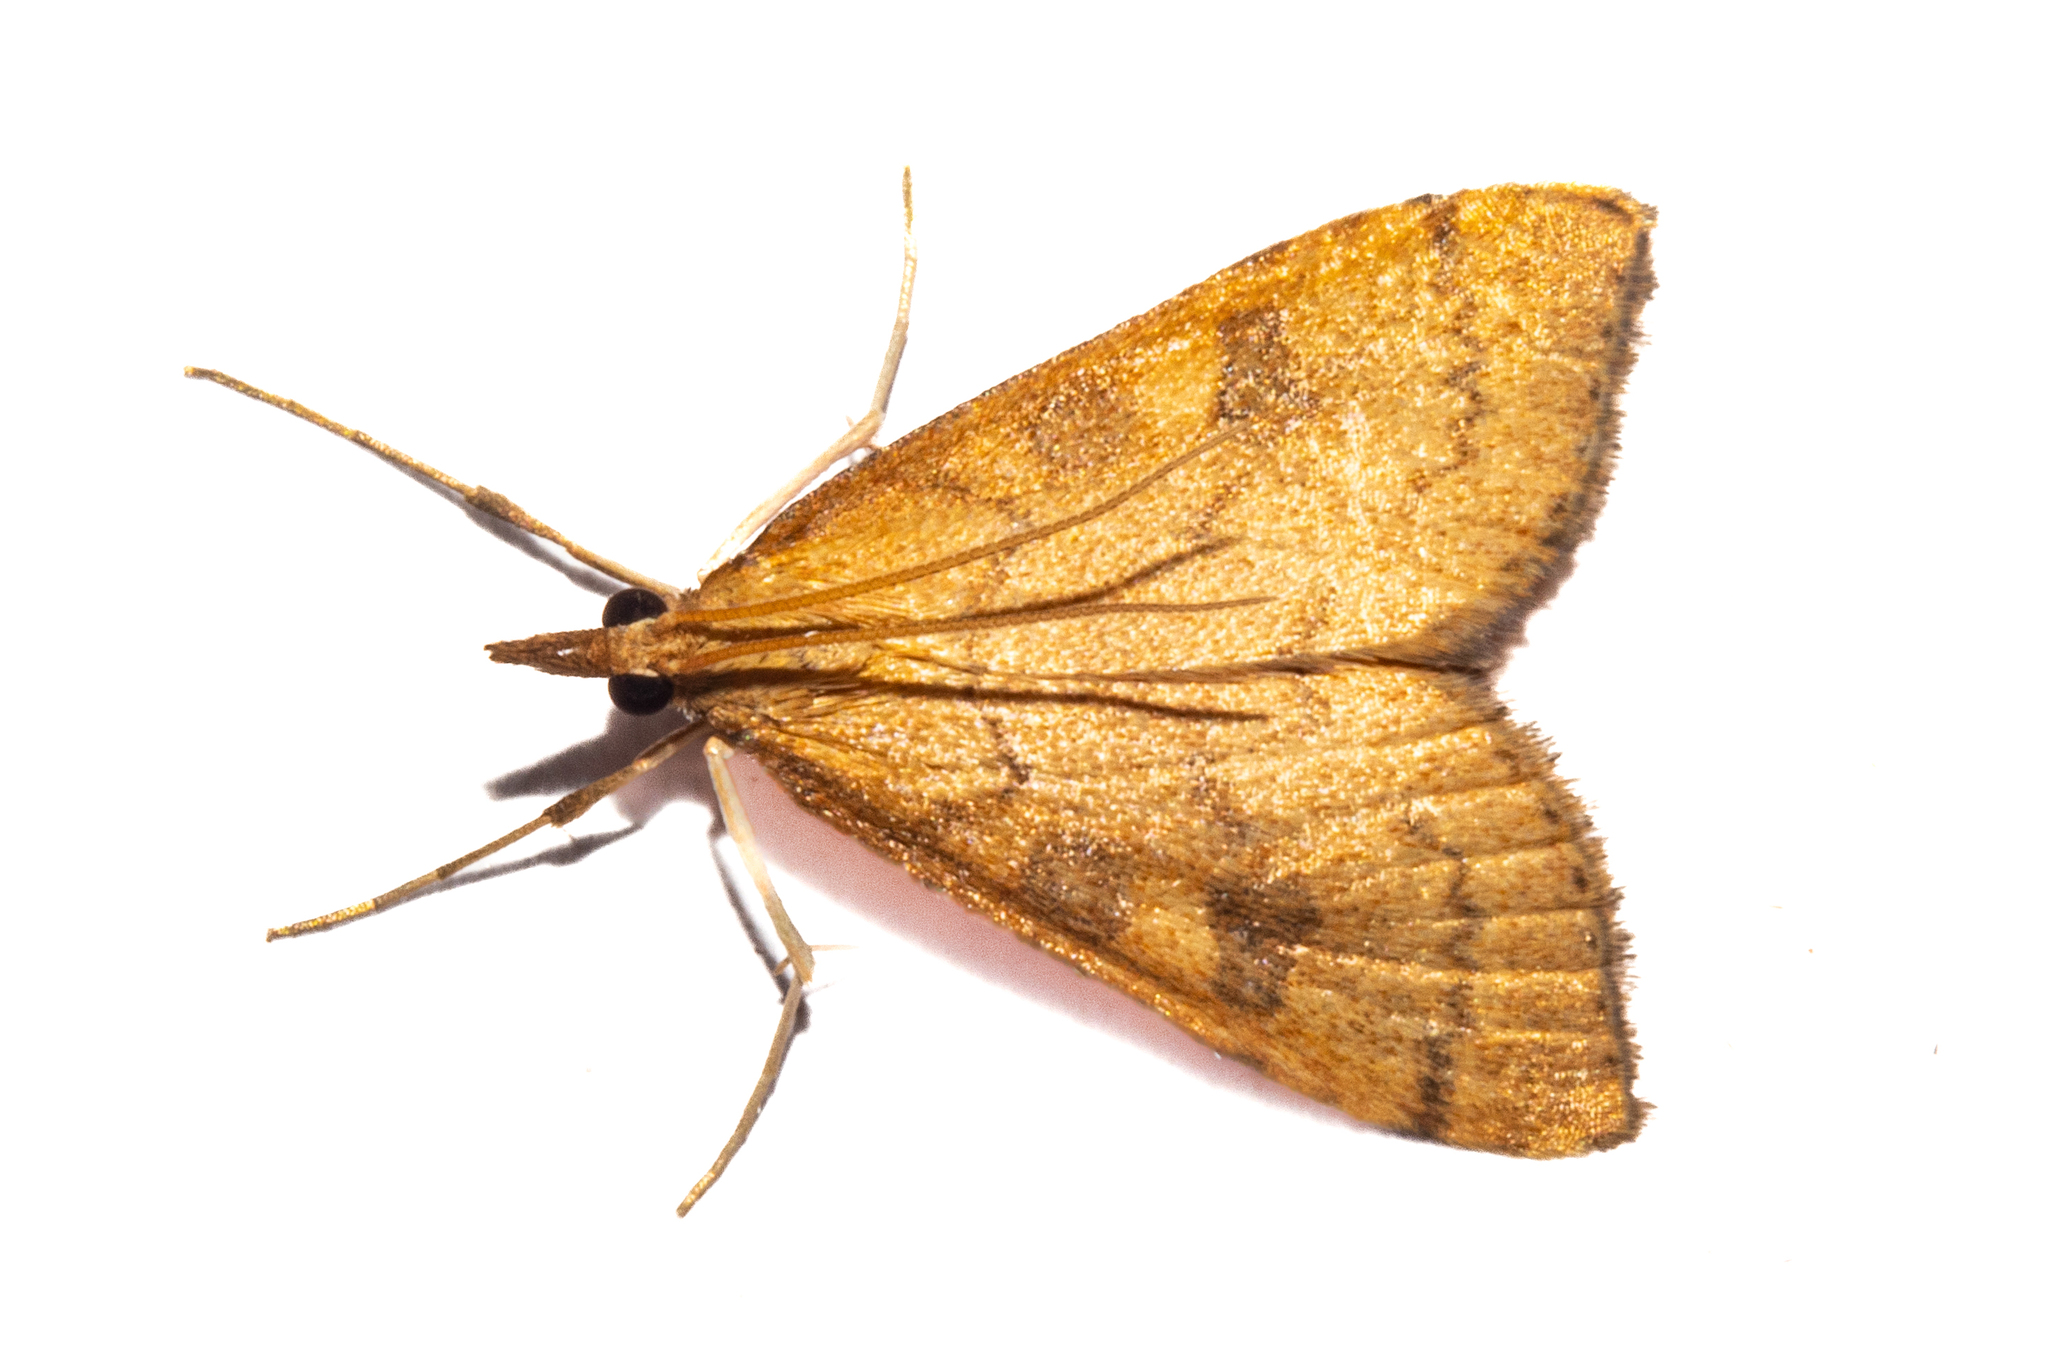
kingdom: Animalia
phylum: Arthropoda
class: Insecta
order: Lepidoptera
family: Crambidae
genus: Udea
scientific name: Udea Mnesictena flavidalis
